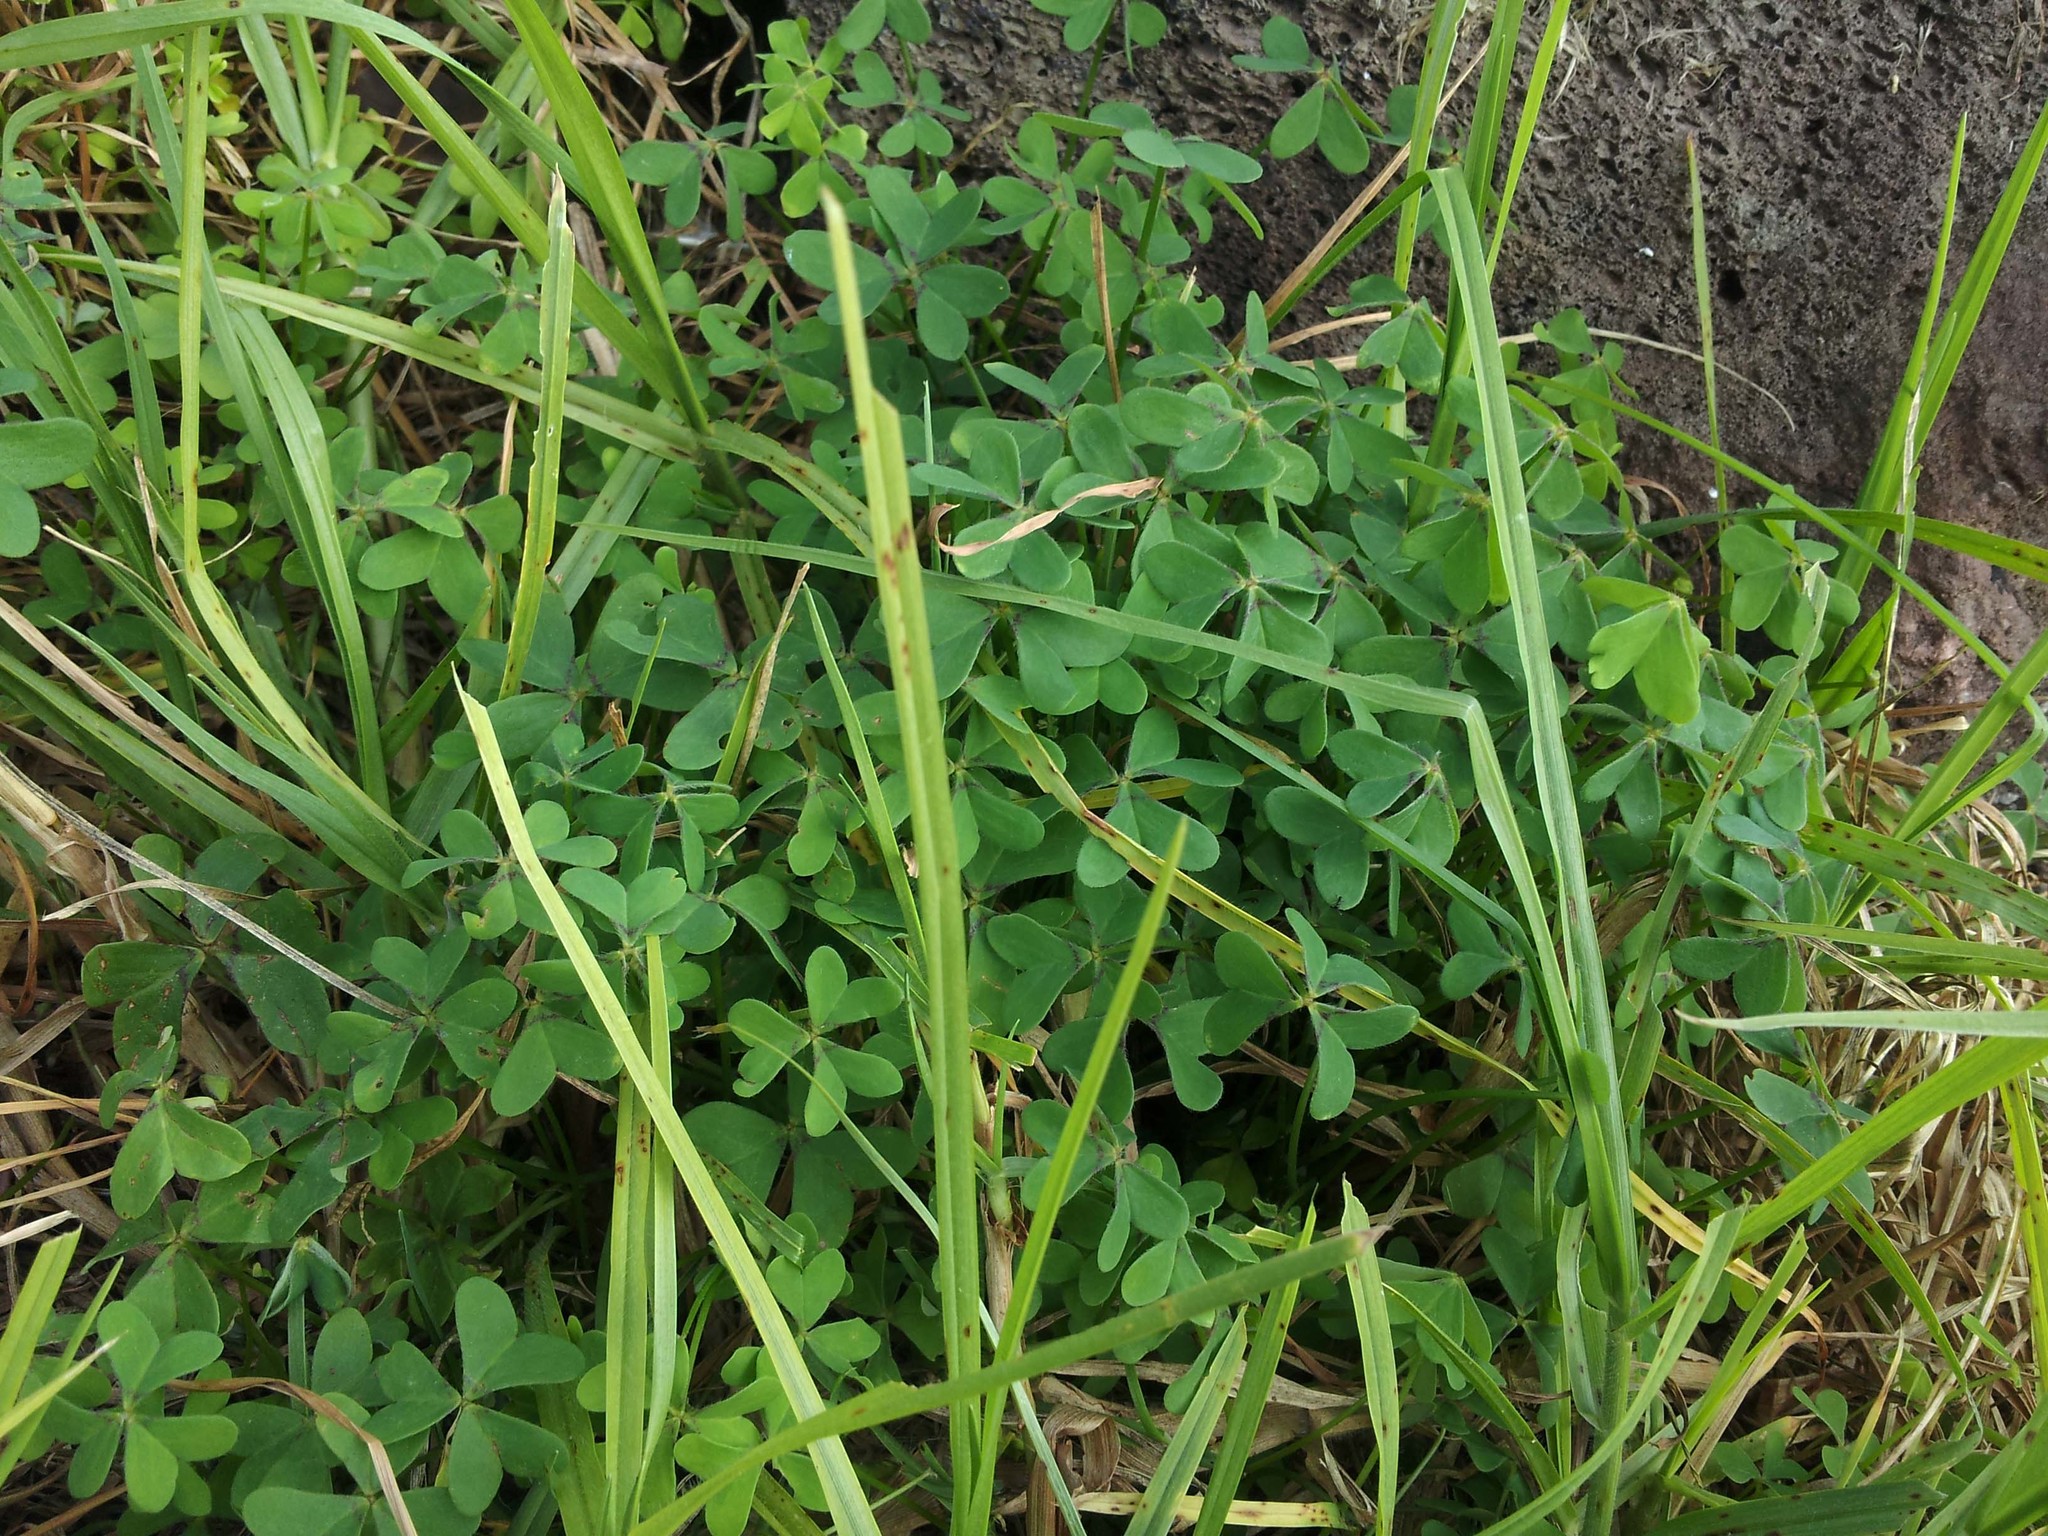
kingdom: Plantae
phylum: Tracheophyta
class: Magnoliopsida
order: Oxalidales
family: Oxalidaceae
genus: Oxalis
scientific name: Oxalis pes-caprae
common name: Bermuda-buttercup
